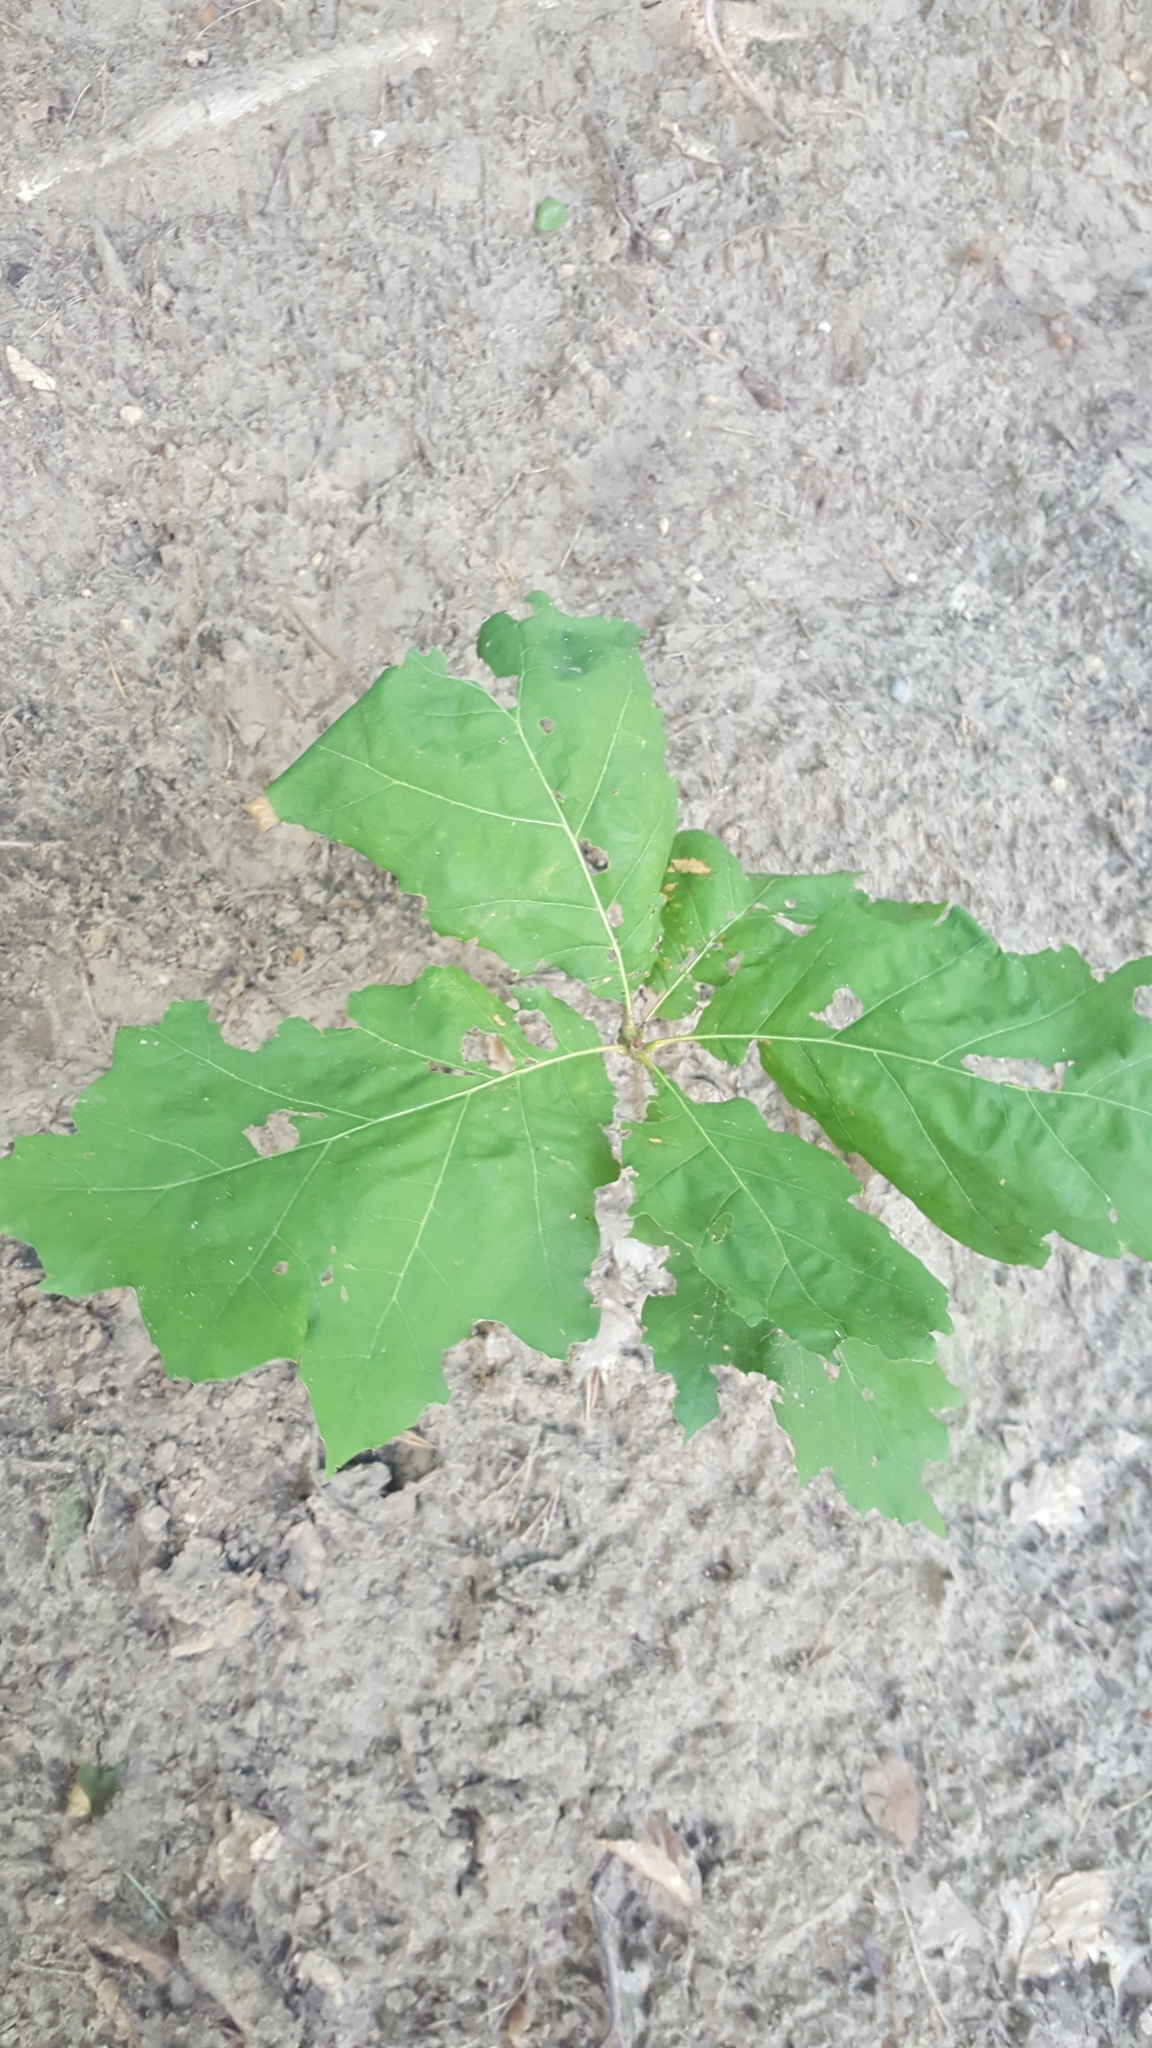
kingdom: Plantae
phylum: Tracheophyta
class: Magnoliopsida
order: Fagales
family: Fagaceae
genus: Quercus
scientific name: Quercus rubra
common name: Red oak
